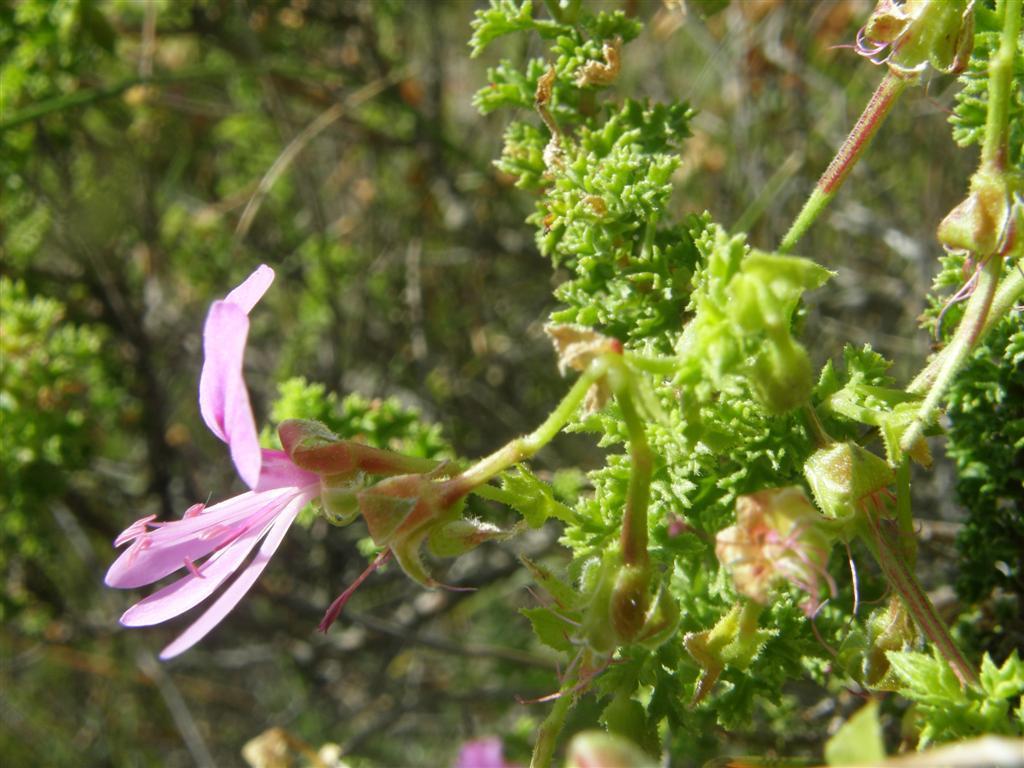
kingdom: Plantae
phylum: Tracheophyta
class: Magnoliopsida
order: Geraniales
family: Geraniaceae
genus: Pelargonium
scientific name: Pelargonium crispum
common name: Crisped-leaf pelargonium
